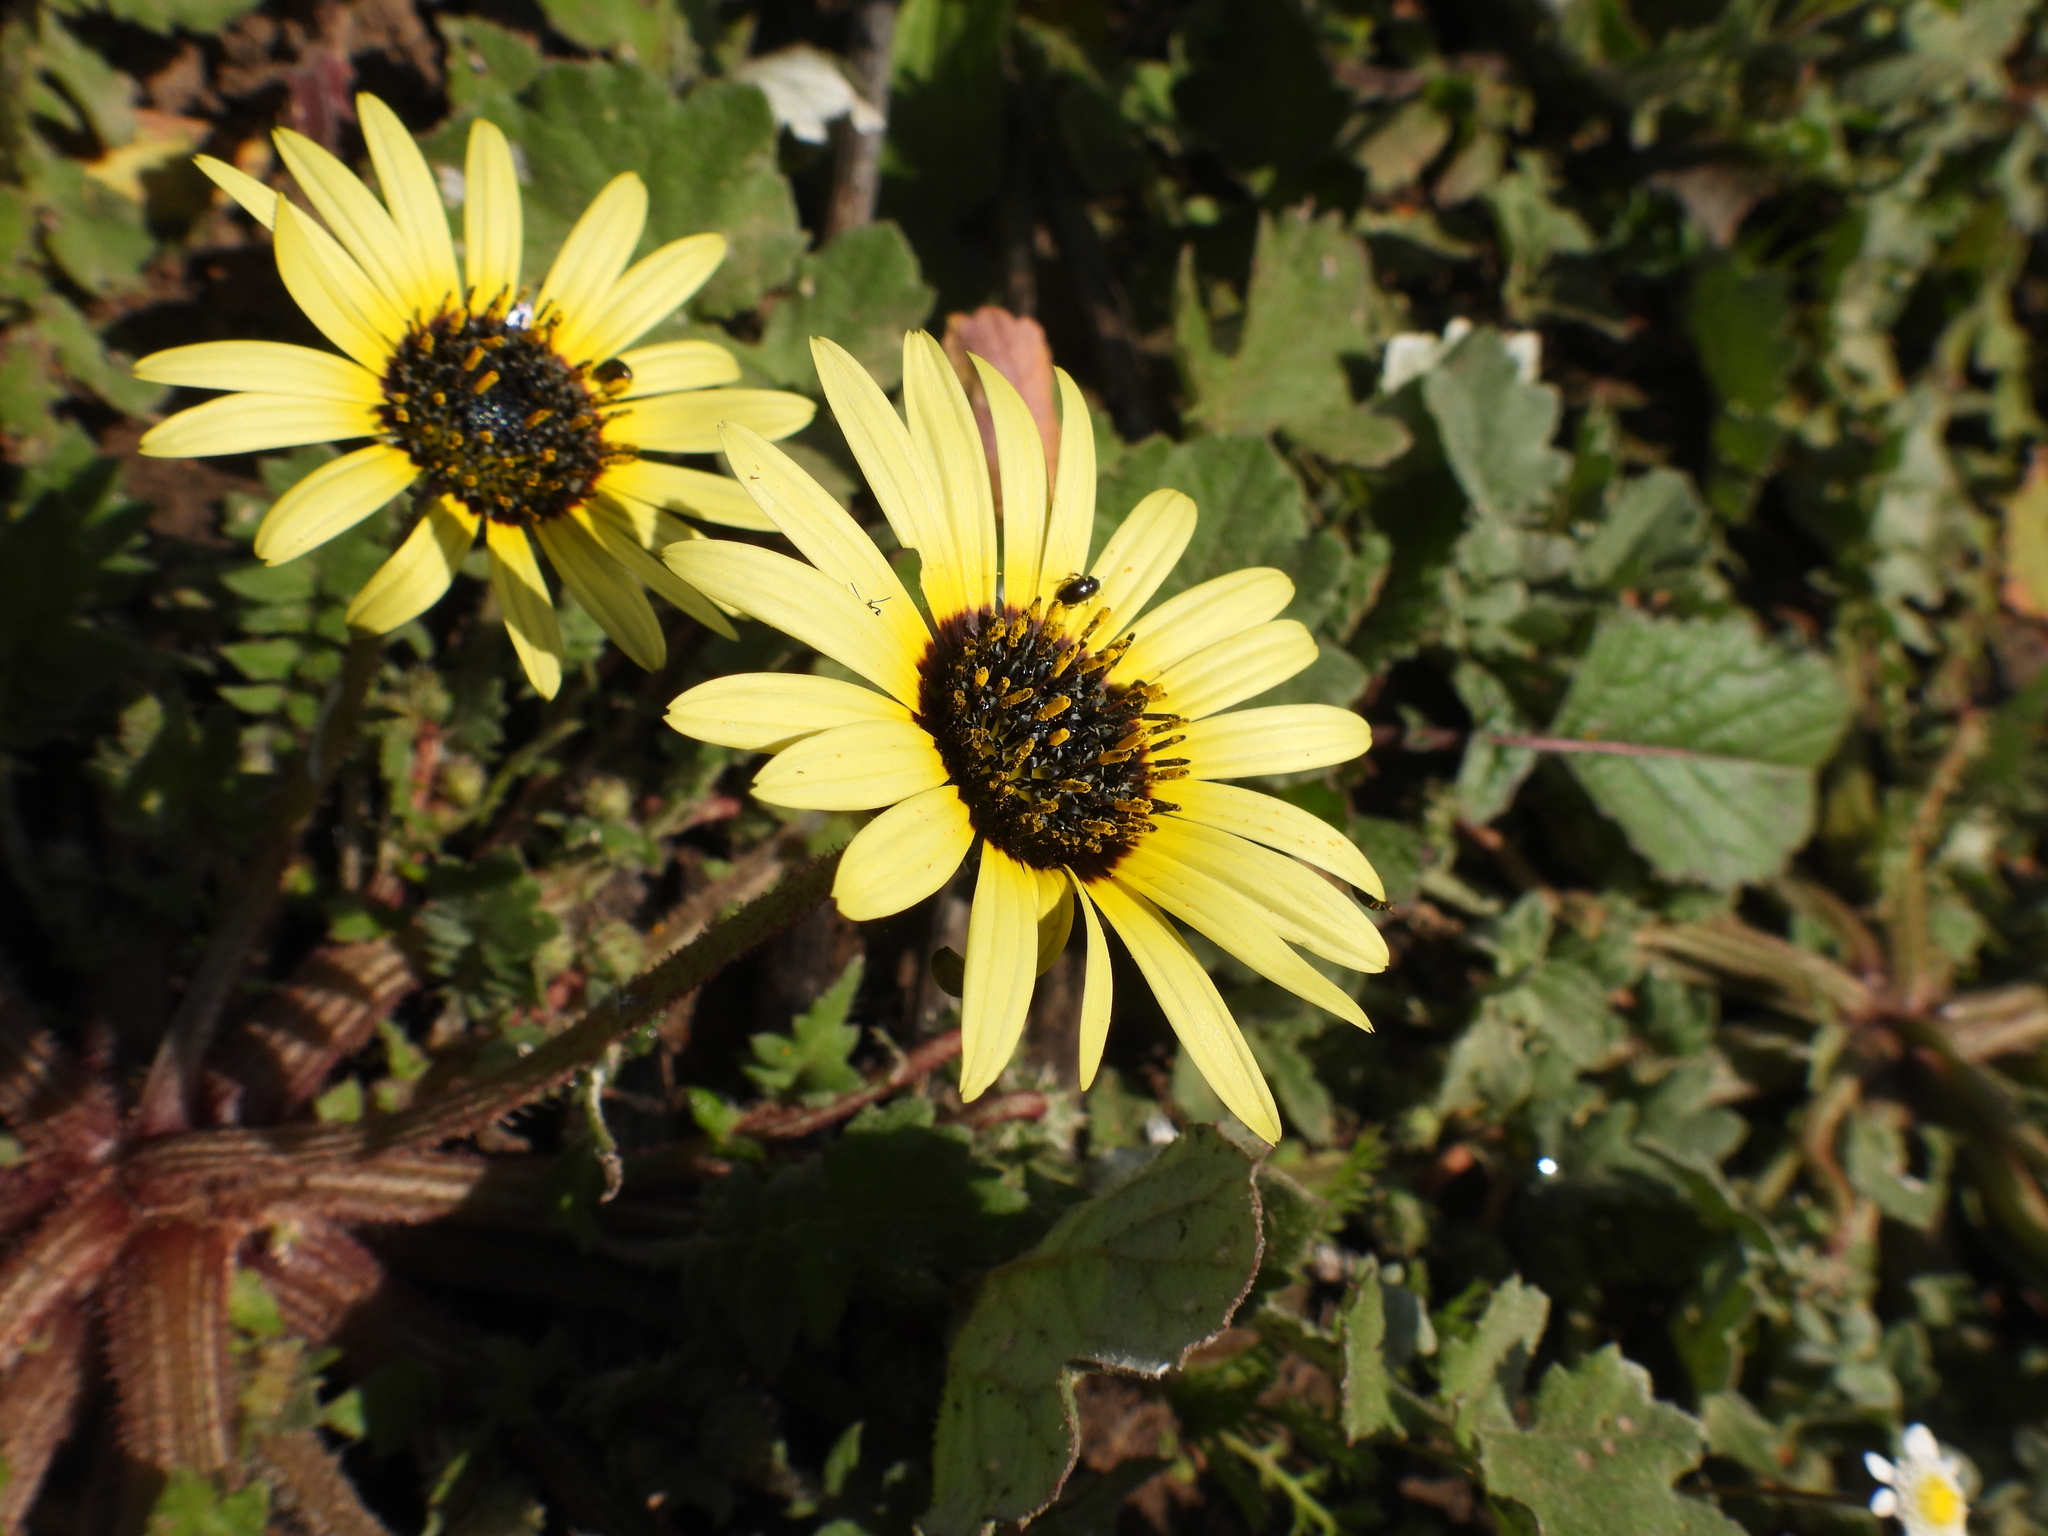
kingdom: Plantae
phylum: Tracheophyta
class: Magnoliopsida
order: Asterales
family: Asteraceae
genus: Arctotheca
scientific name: Arctotheca calendula
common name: Capeweed
